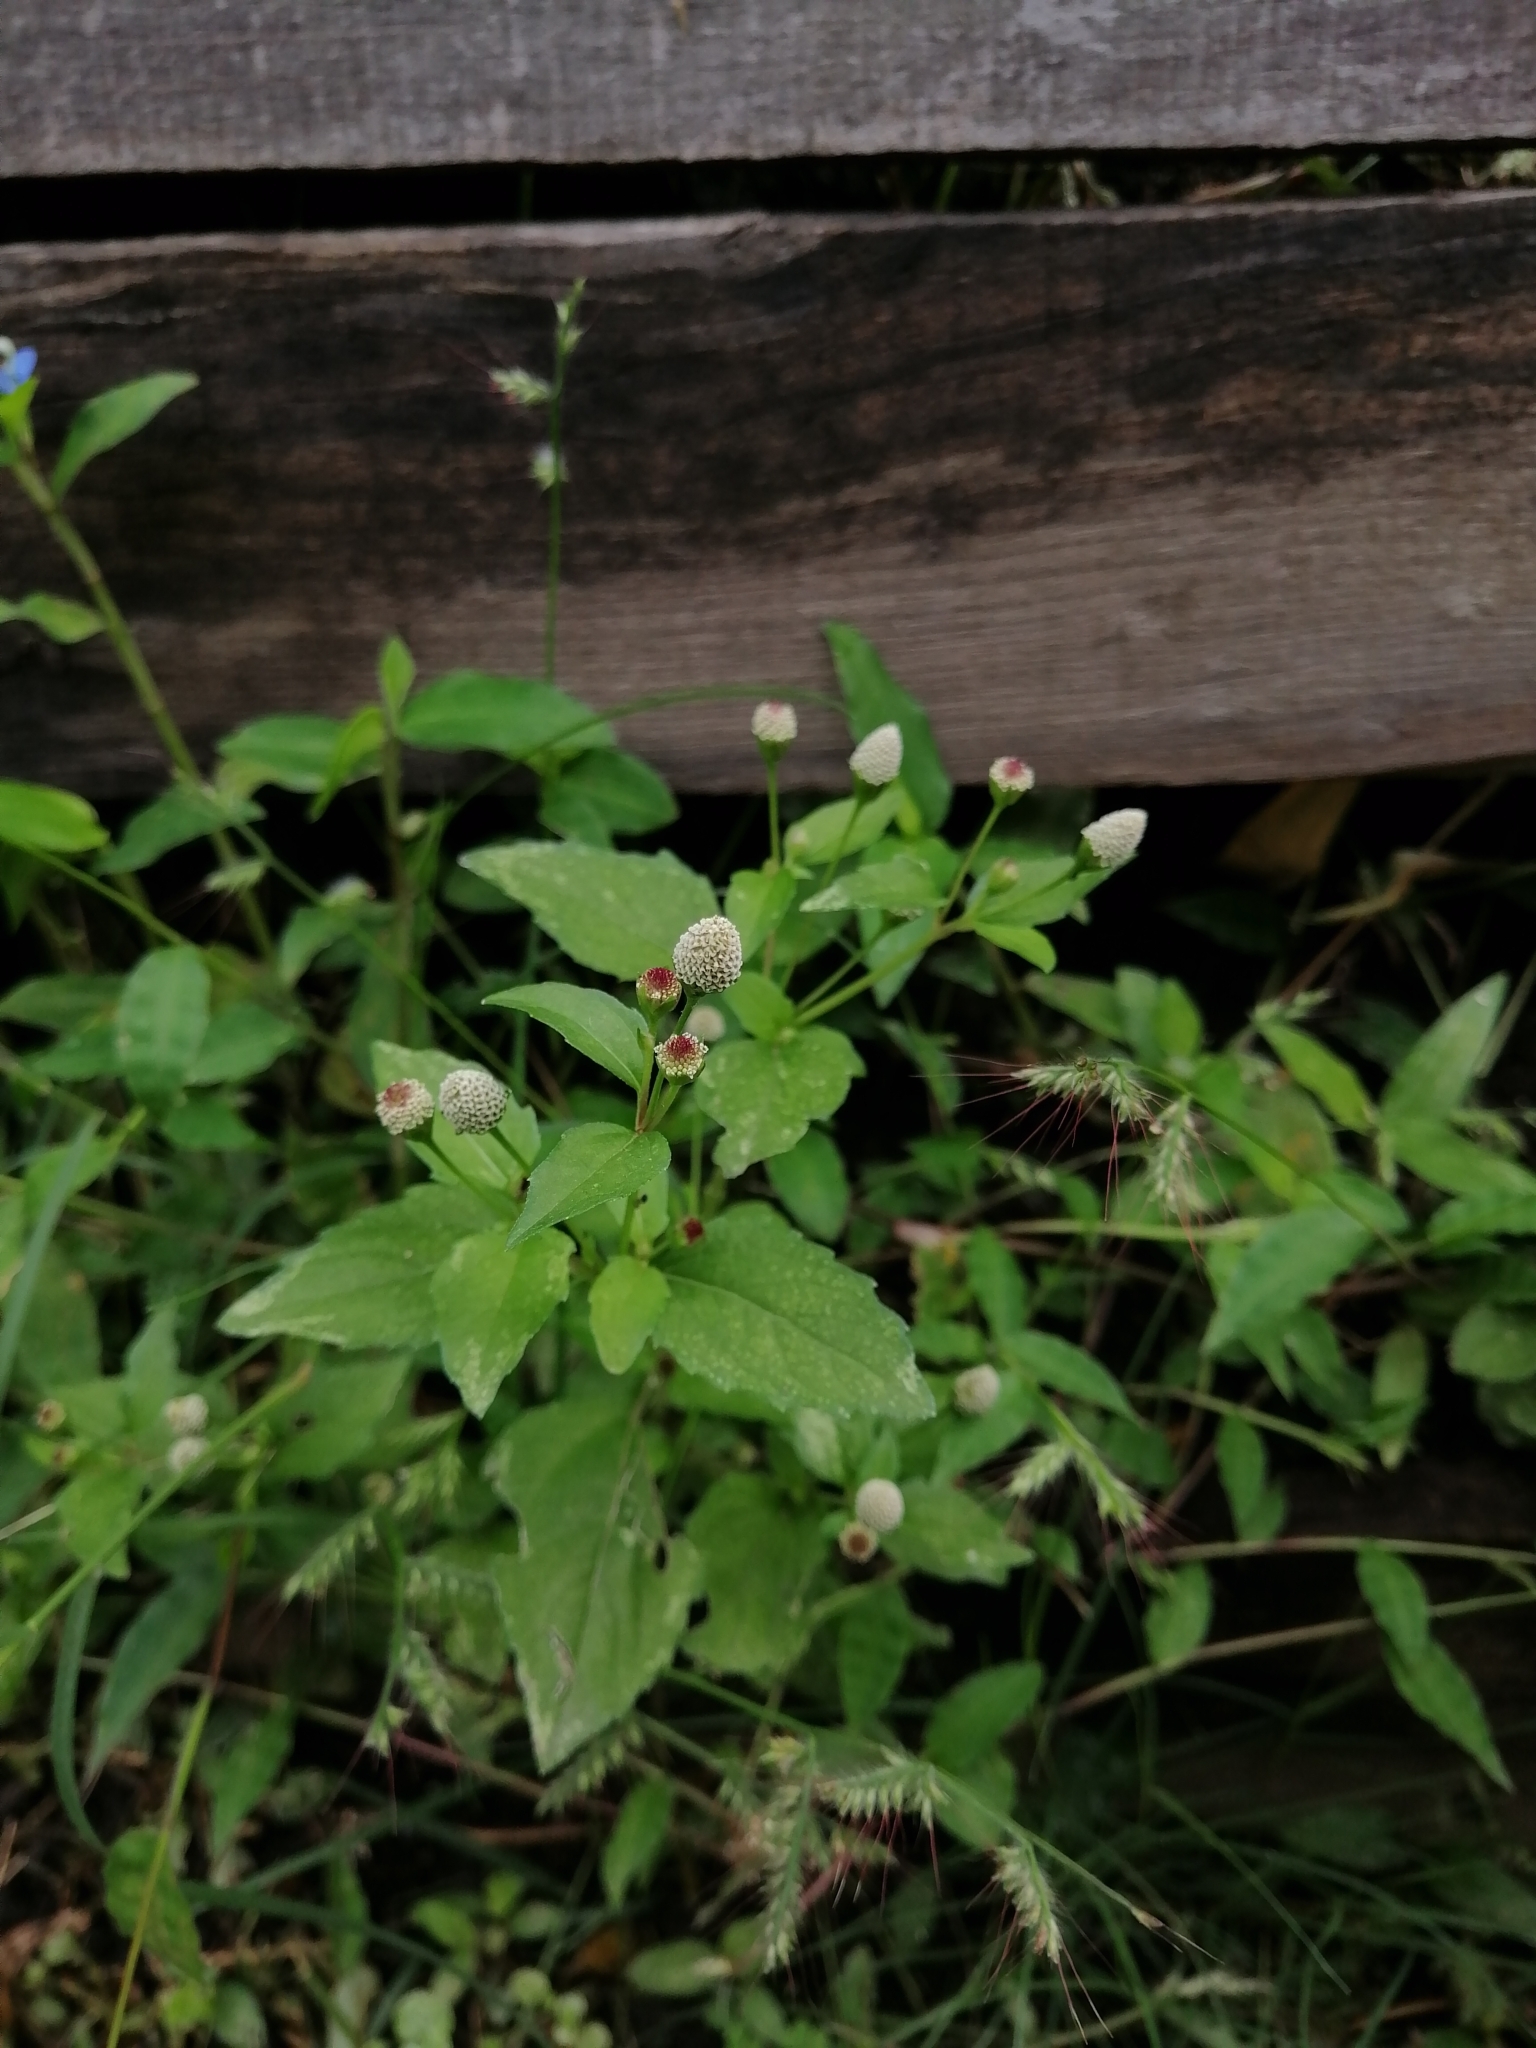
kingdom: Plantae
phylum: Tracheophyta
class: Magnoliopsida
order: Asterales
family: Asteraceae
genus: Acmella
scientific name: Acmella radicans
